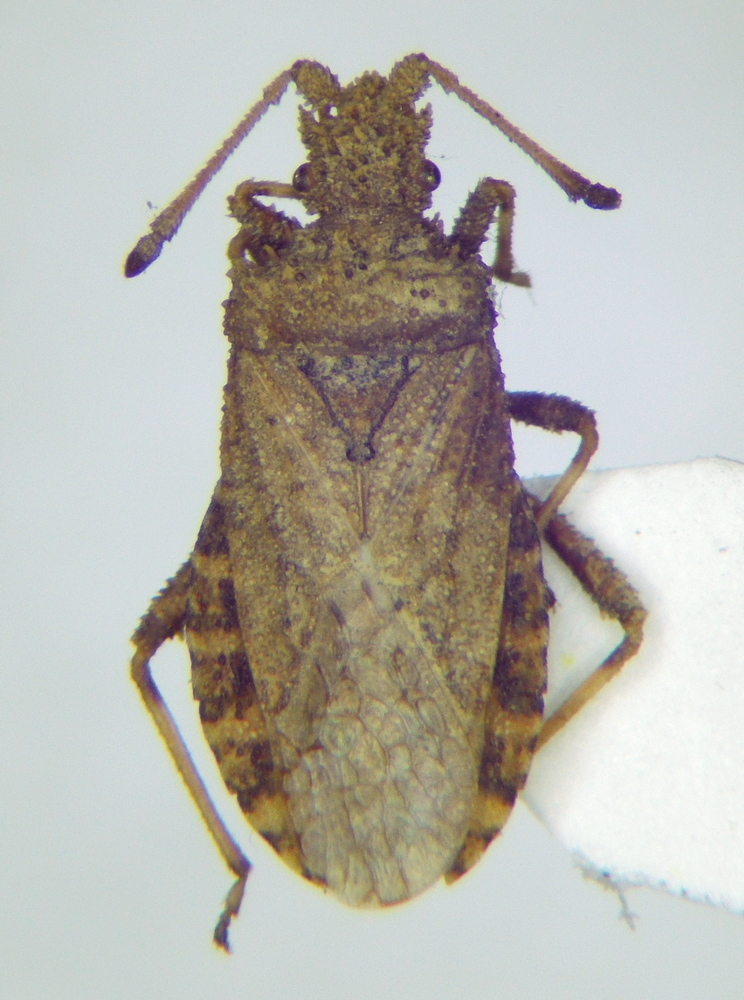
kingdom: Animalia
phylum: Arthropoda
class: Insecta
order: Hemiptera
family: Coreidae
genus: Arenocoris
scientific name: Arenocoris waltlii
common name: Breckland leatherbug
